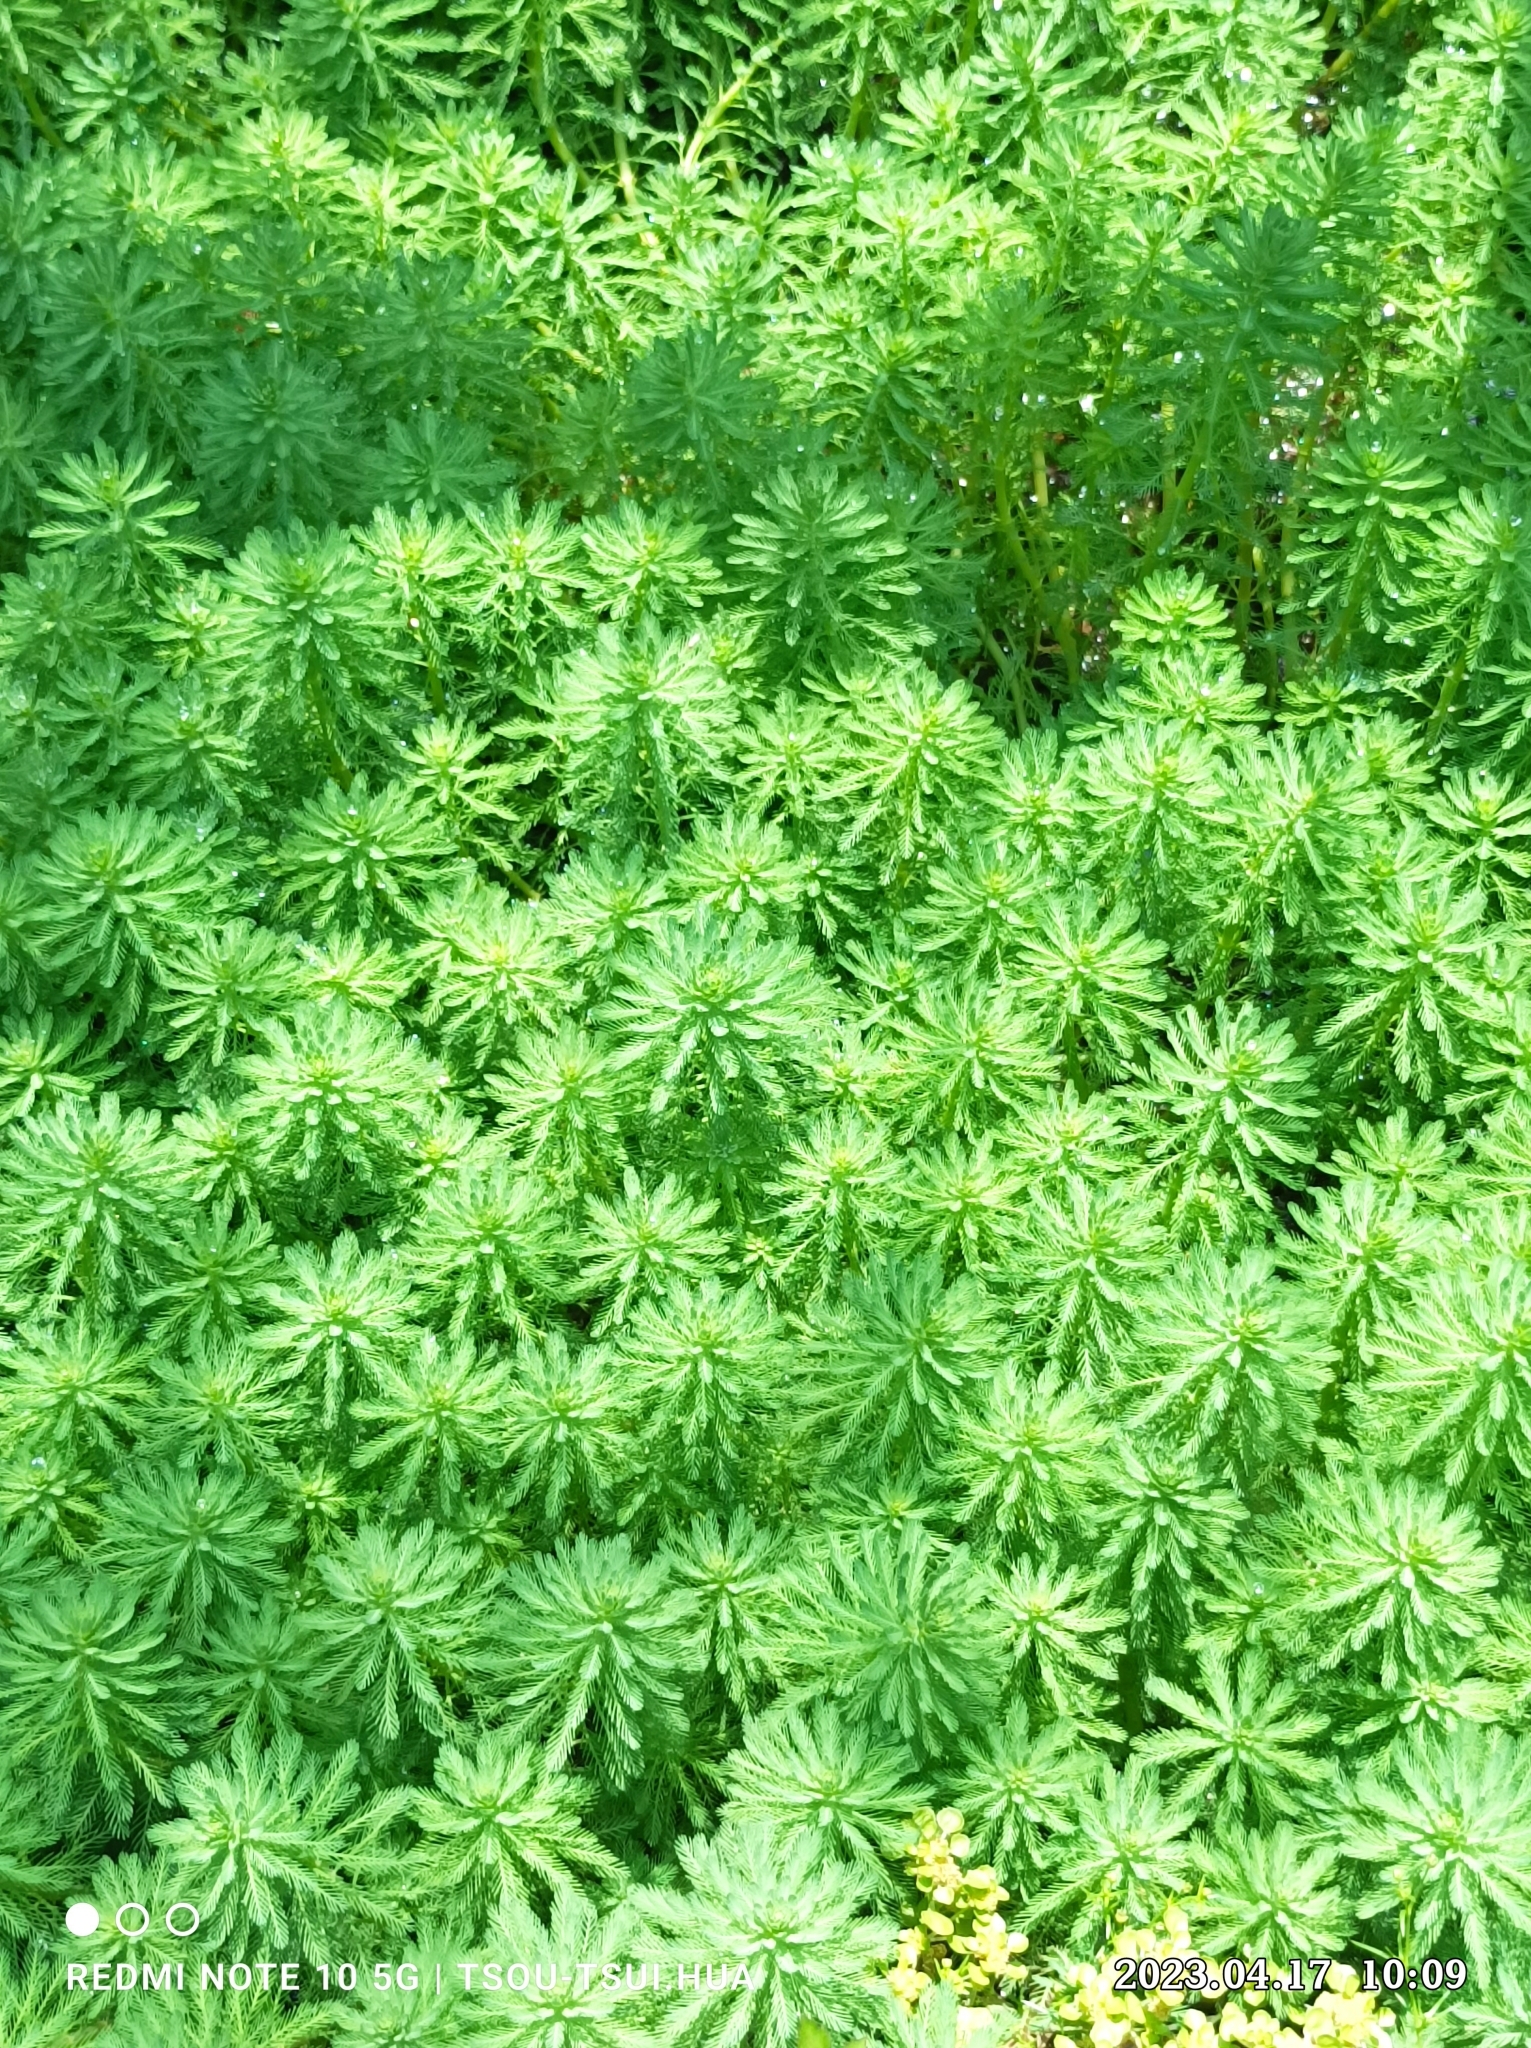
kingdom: Plantae
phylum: Tracheophyta
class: Magnoliopsida
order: Saxifragales
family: Haloragaceae
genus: Myriophyllum
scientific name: Myriophyllum aquaticum
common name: Parrot's feather
